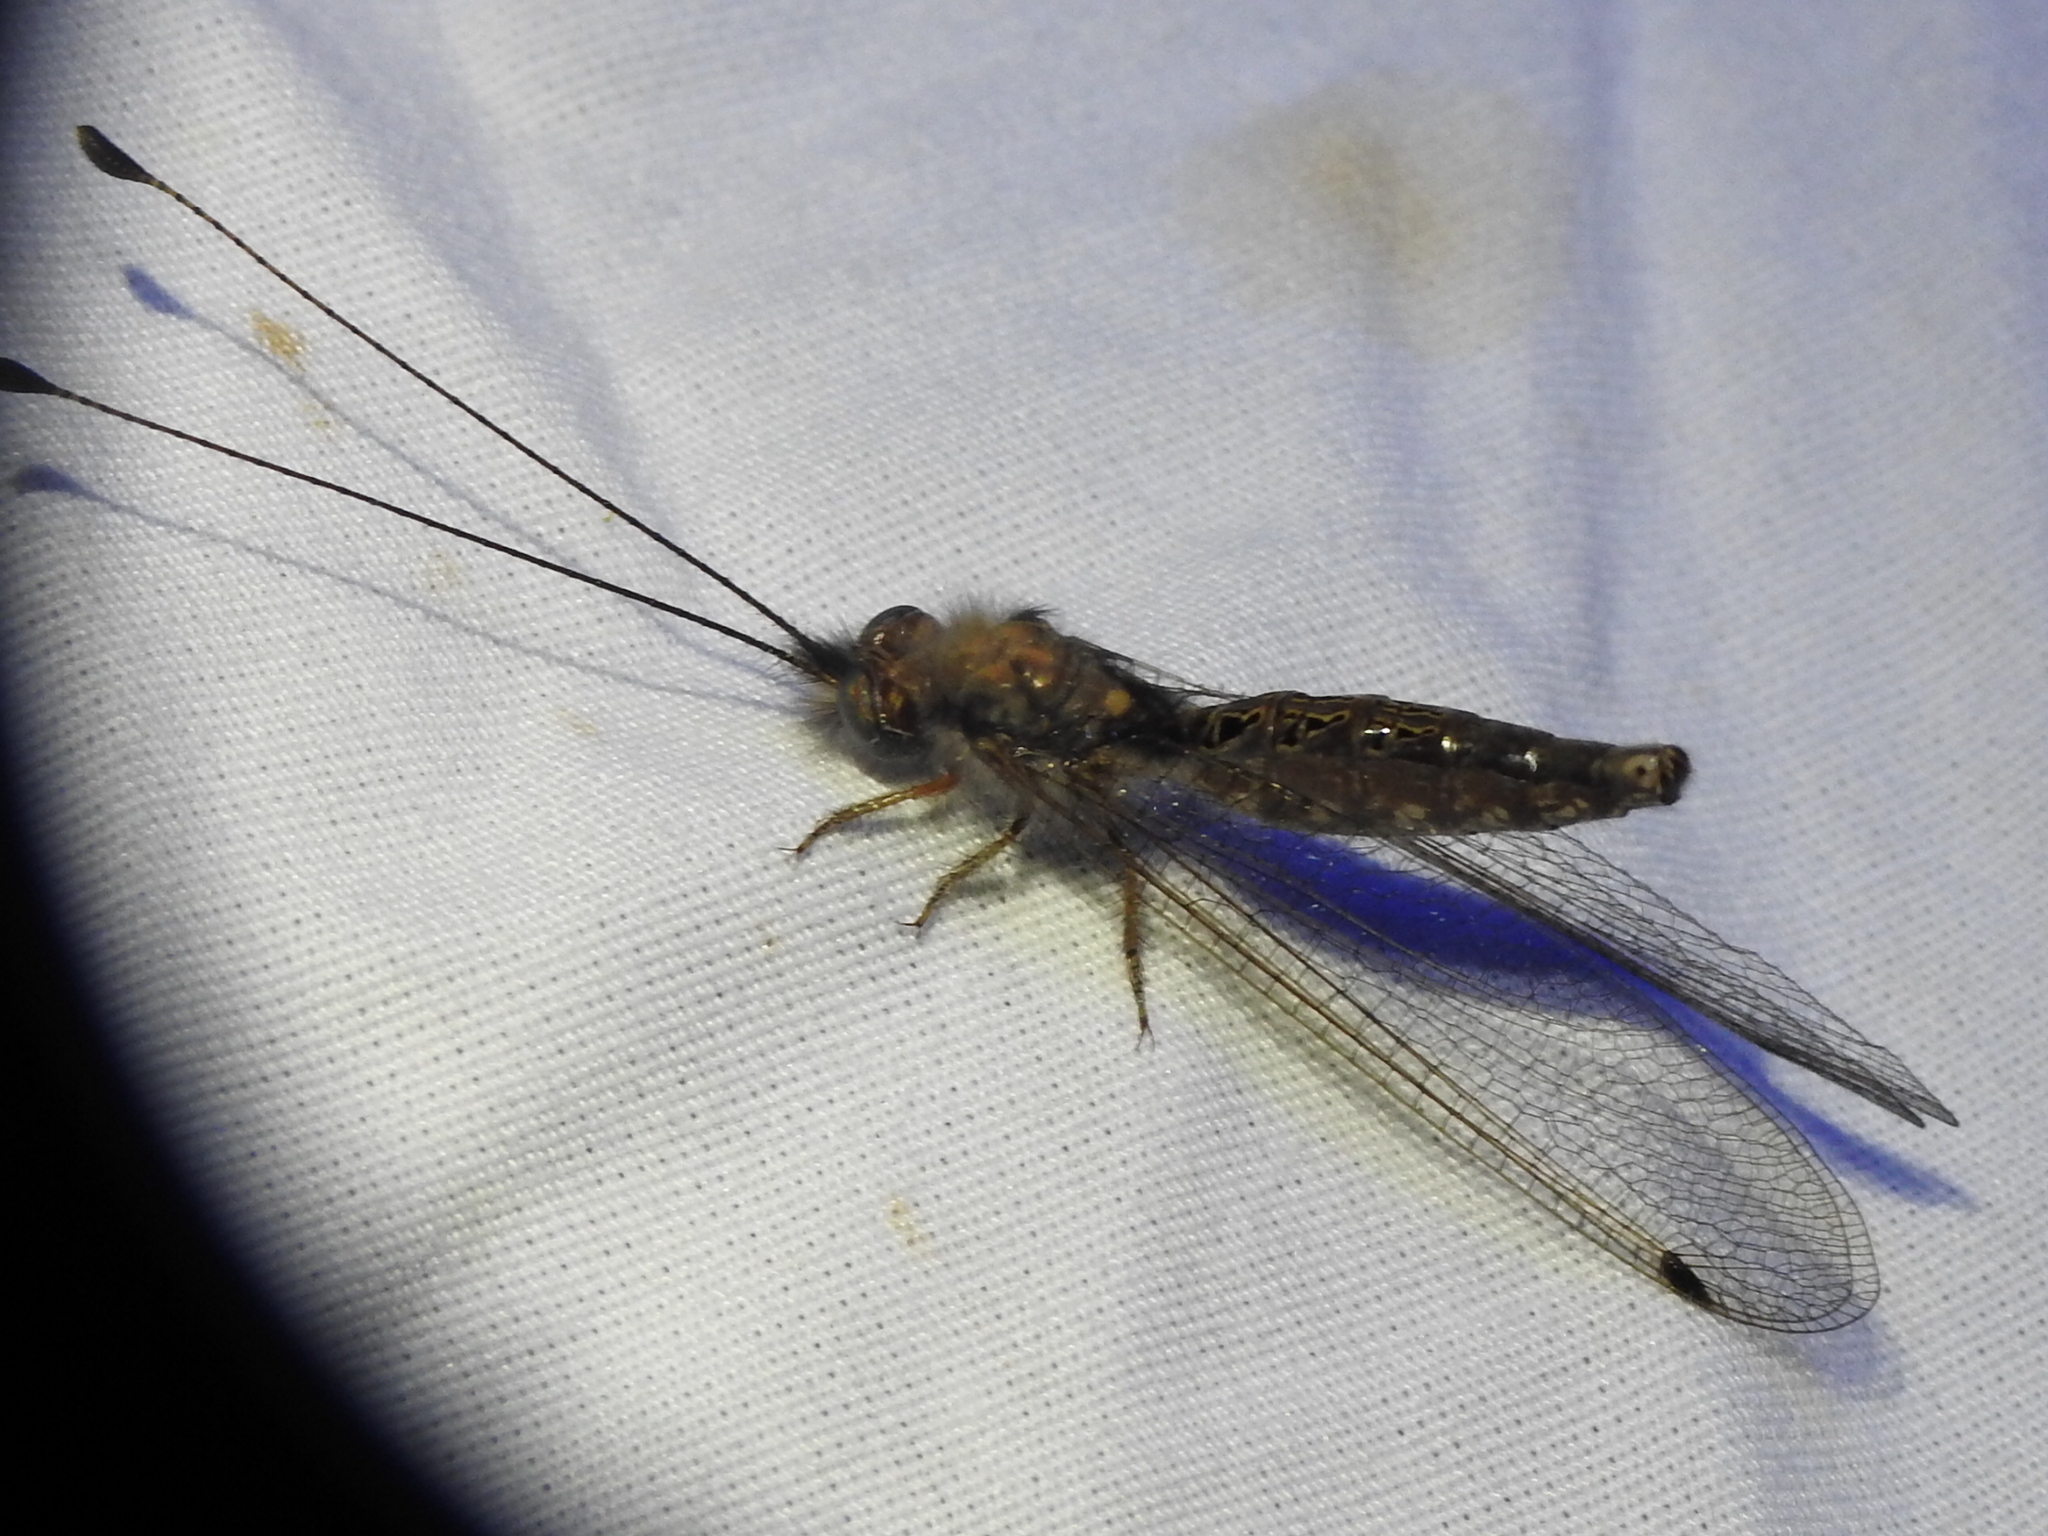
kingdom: Animalia
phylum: Arthropoda
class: Insecta
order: Neuroptera
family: Ascalaphidae
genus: Ululodes
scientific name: Ululodes macleayanus
